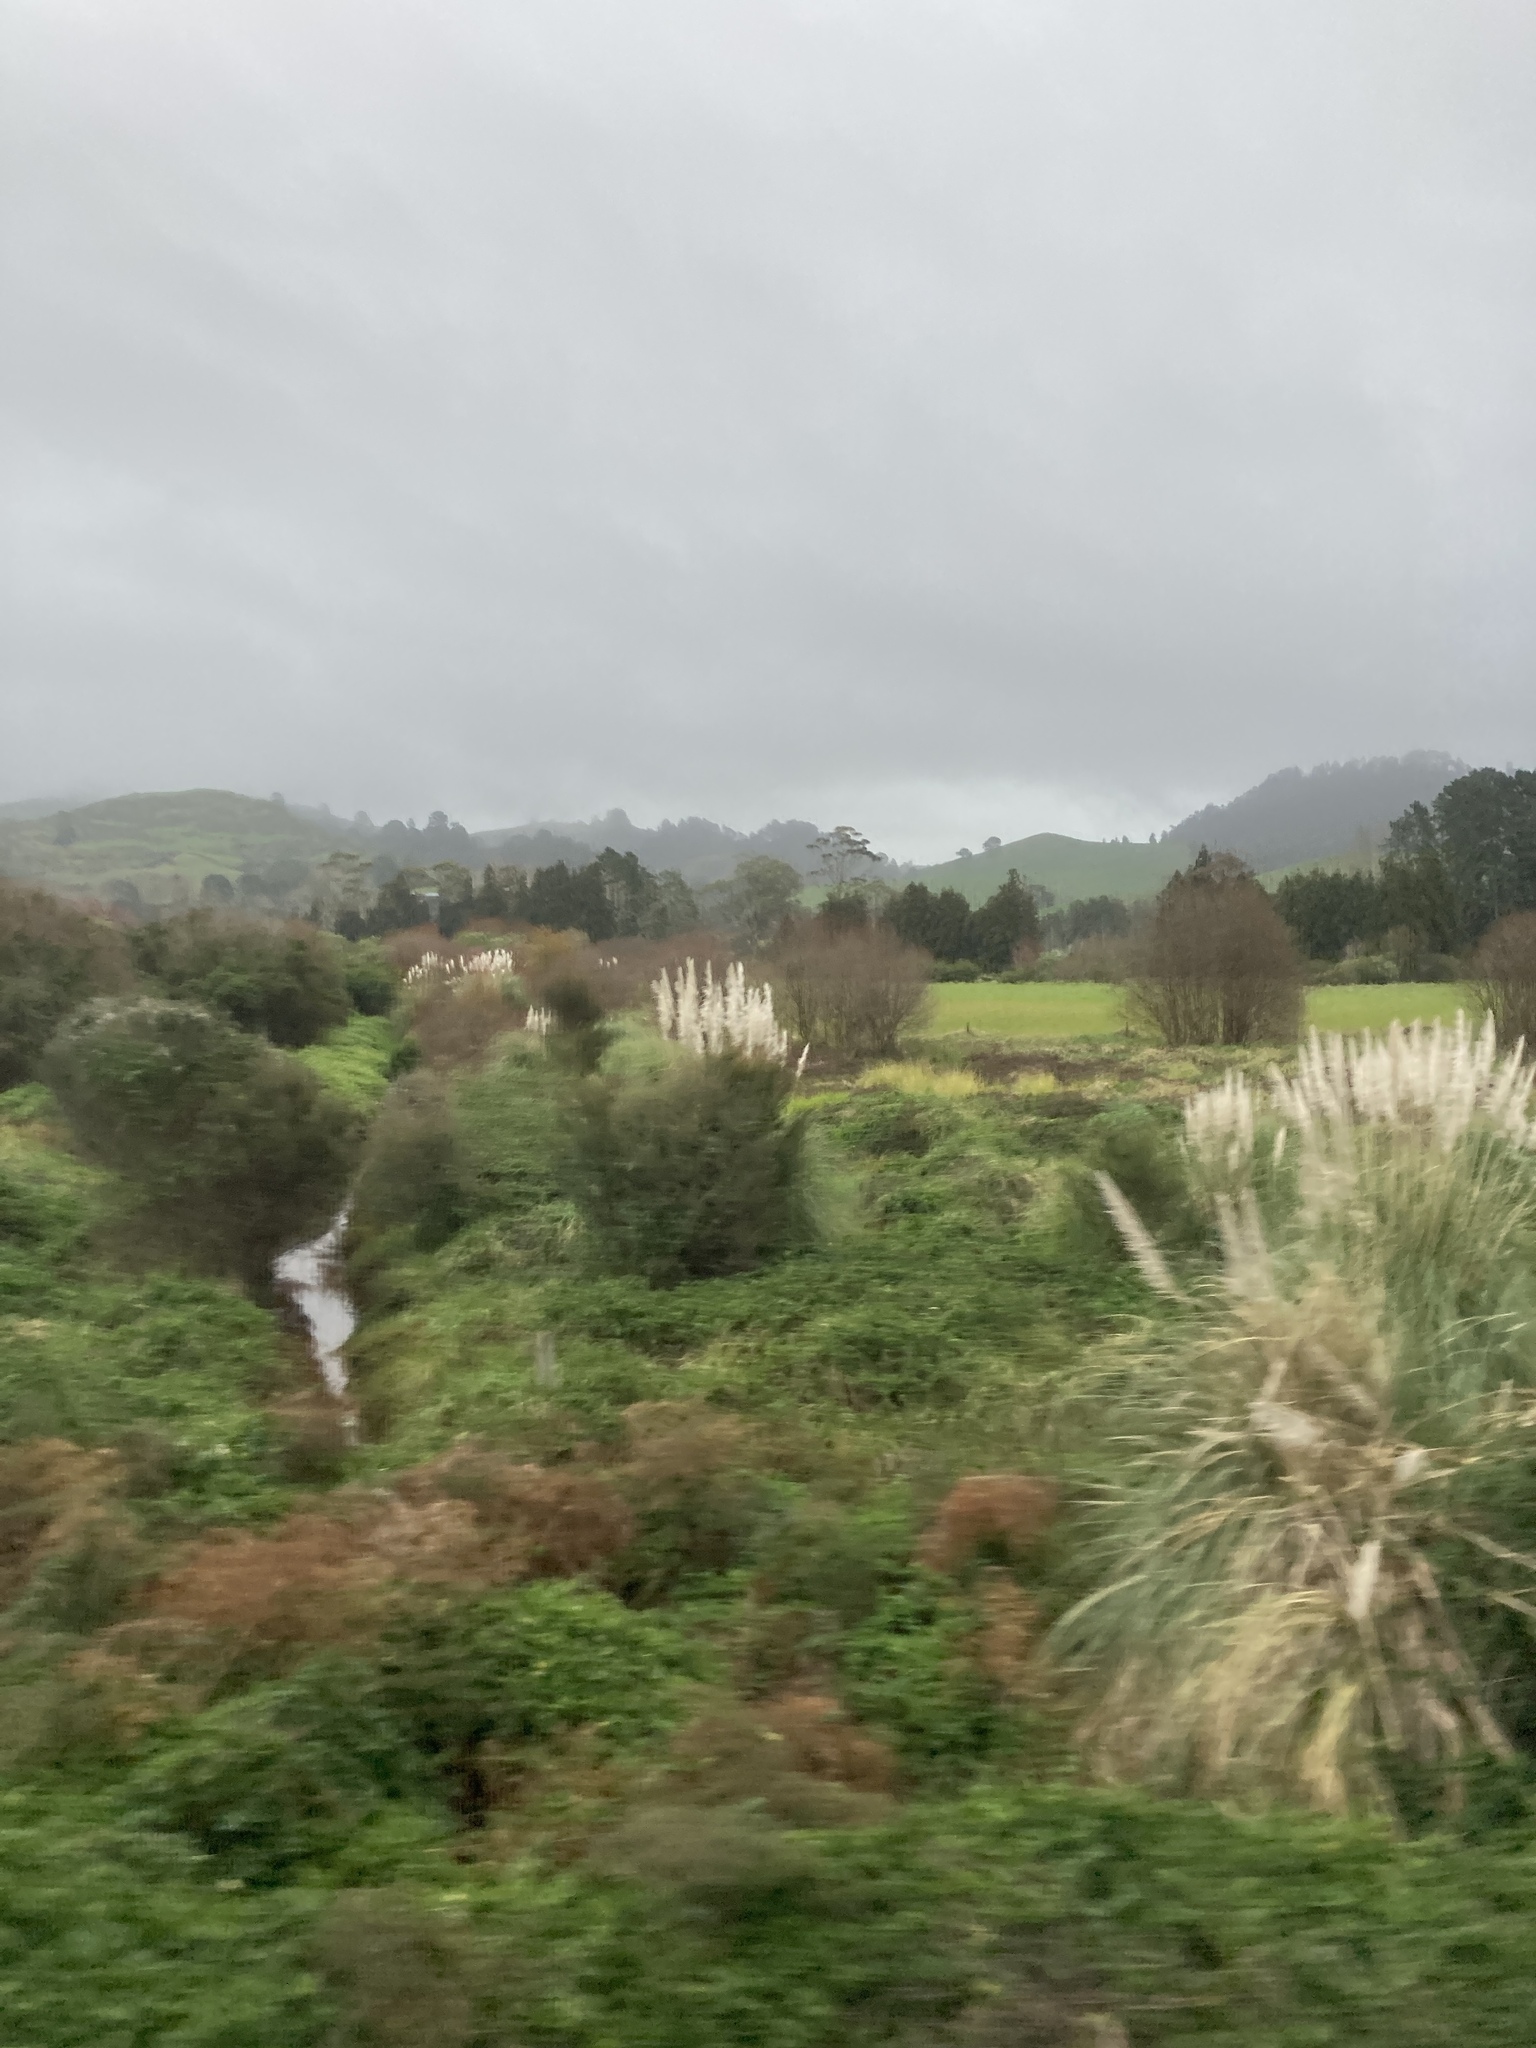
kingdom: Plantae
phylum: Tracheophyta
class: Liliopsida
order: Poales
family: Poaceae
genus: Cortaderia
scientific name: Cortaderia selloana
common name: Uruguayan pampas grass
